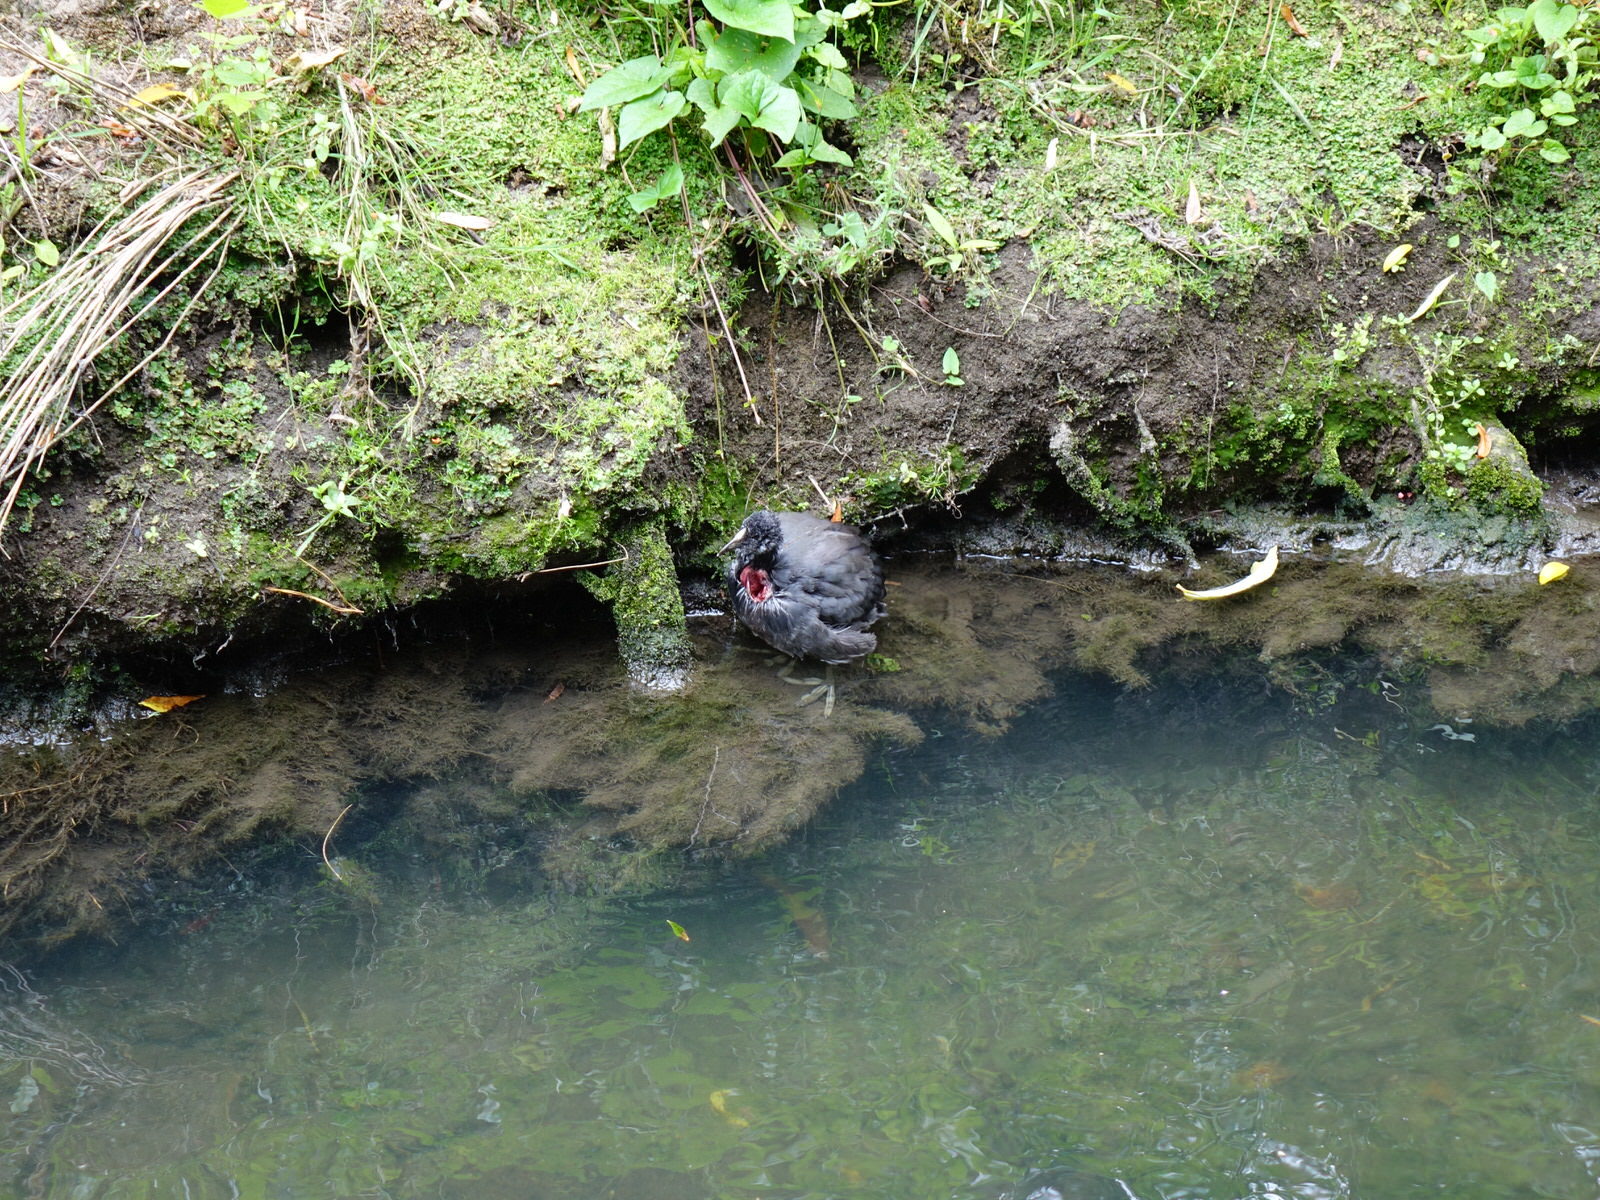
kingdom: Animalia
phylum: Chordata
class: Aves
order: Gruiformes
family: Rallidae
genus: Fulica
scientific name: Fulica atra
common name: Eurasian coot
